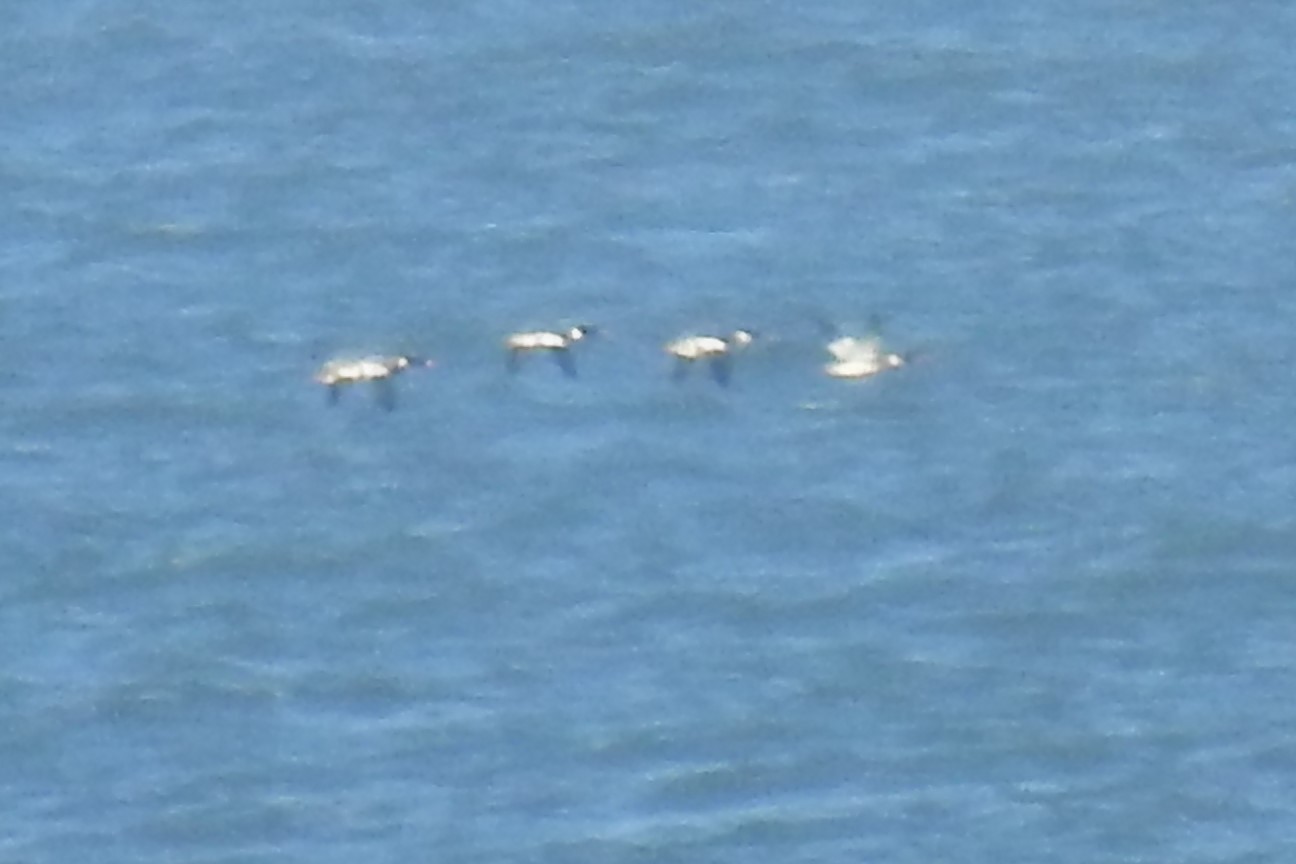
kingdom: Animalia
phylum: Chordata
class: Aves
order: Anseriformes
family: Anatidae
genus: Mergus
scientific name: Mergus serrator
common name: Red-breasted merganser
